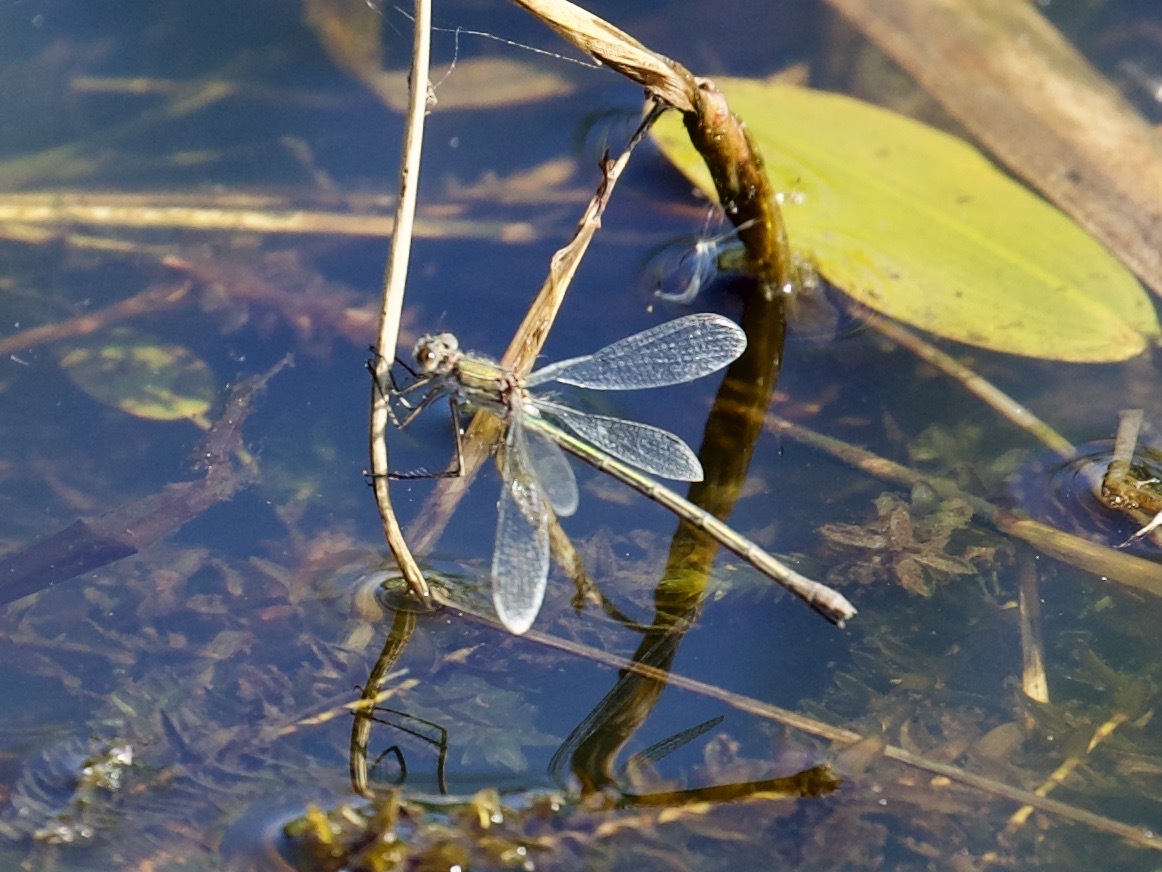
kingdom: Animalia
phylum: Arthropoda
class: Insecta
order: Odonata
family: Lestidae
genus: Lestes
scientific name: Lestes sponsa
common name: Common spreadwing
